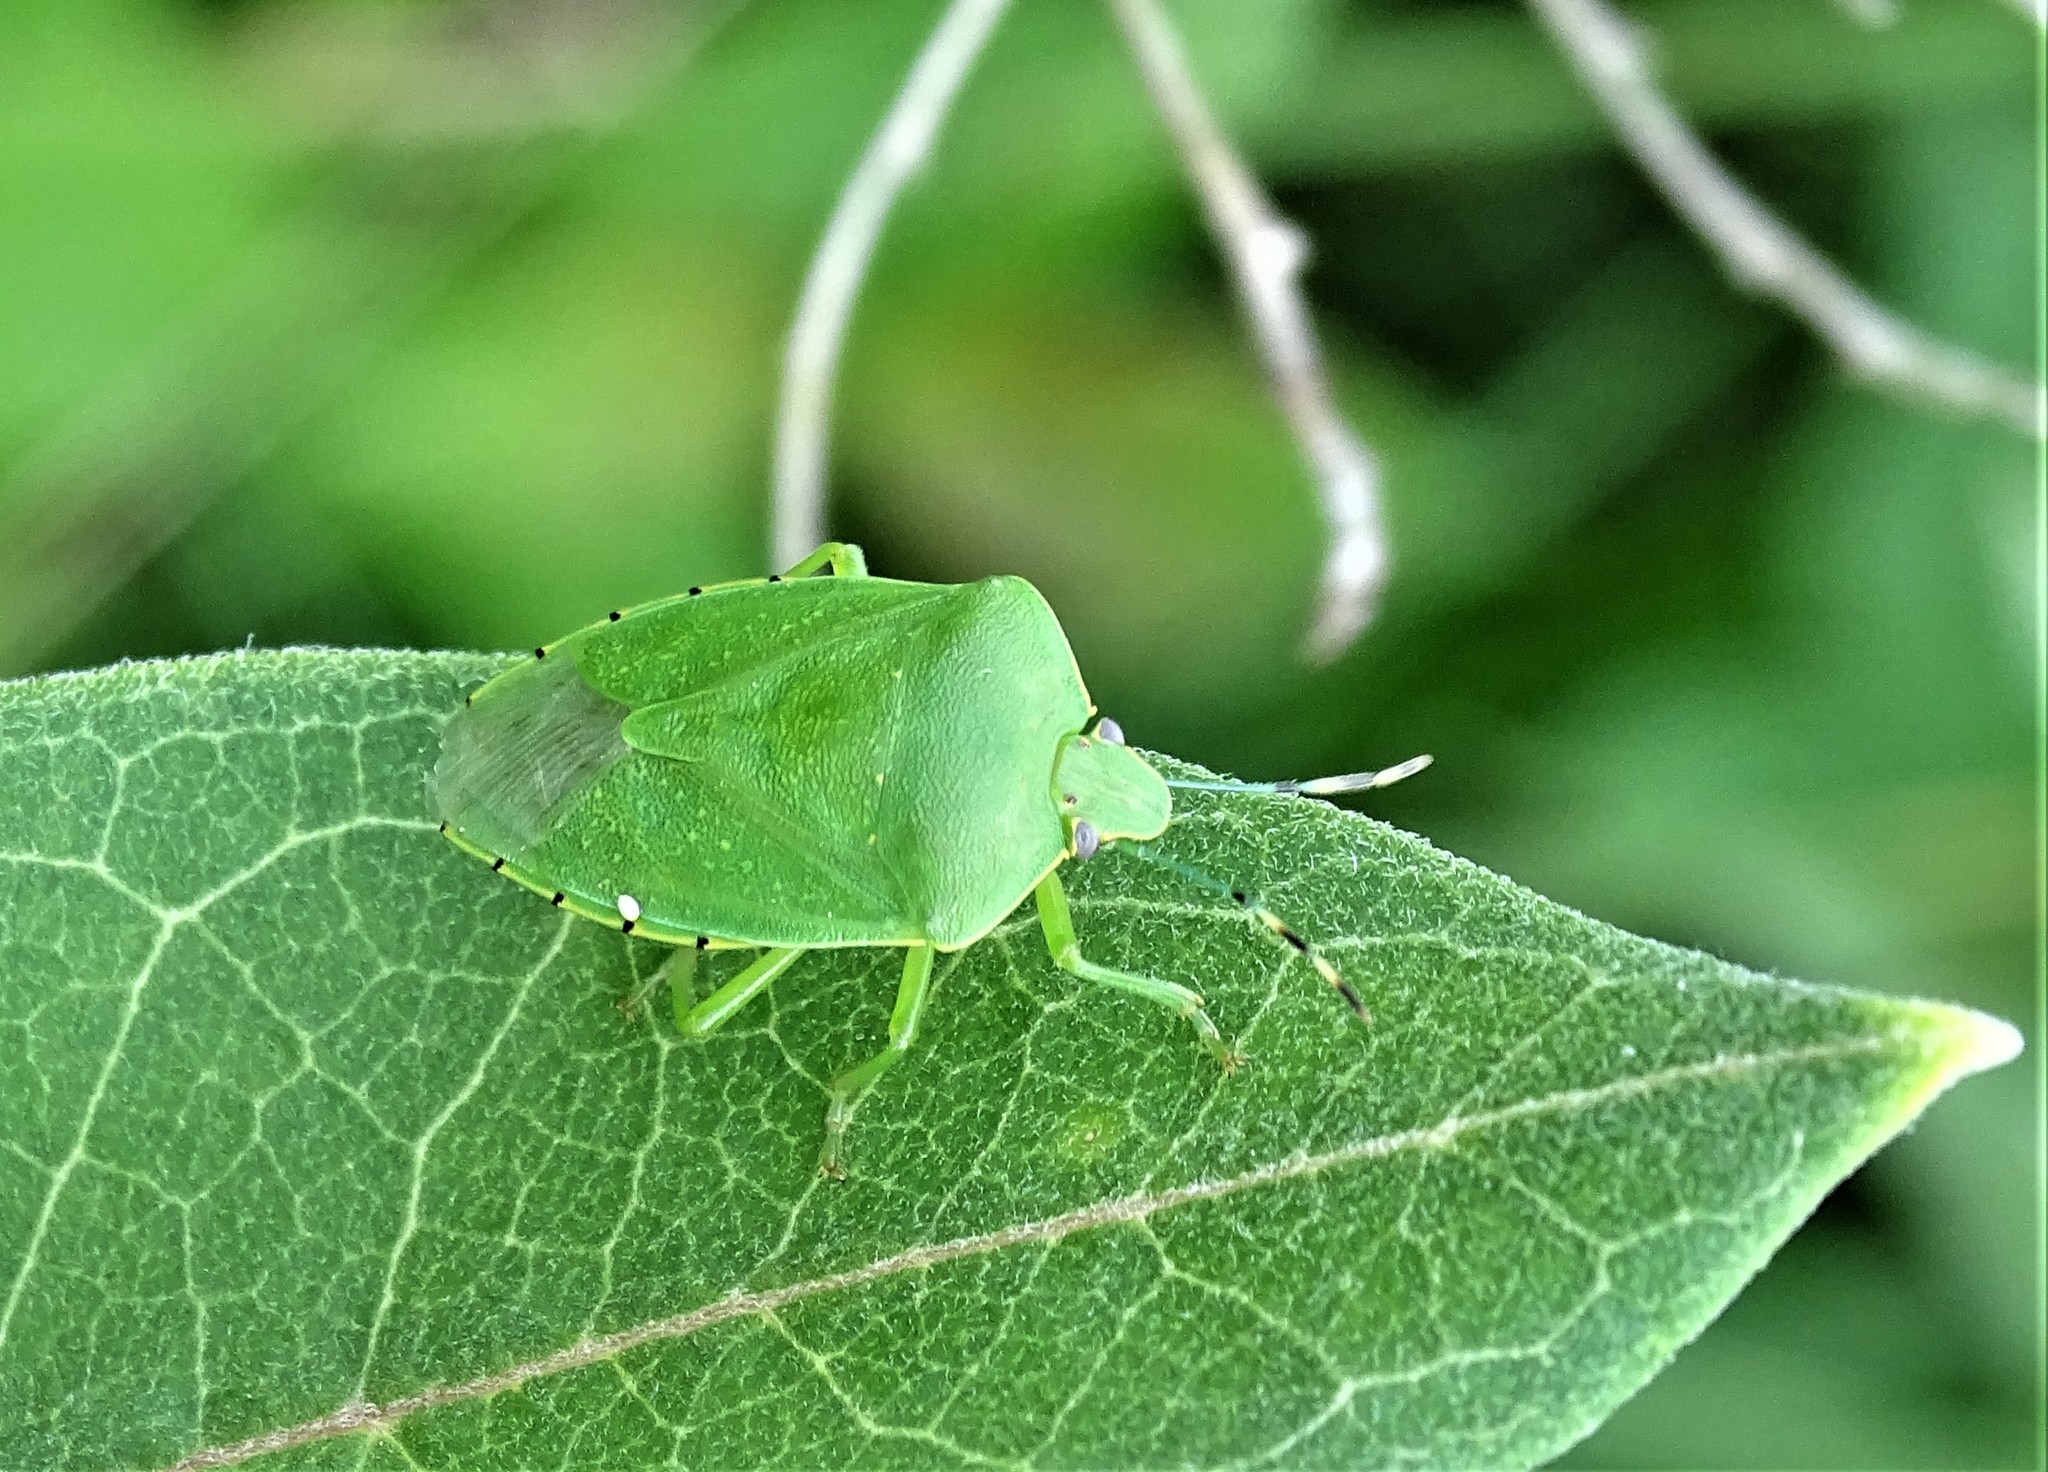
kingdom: Animalia
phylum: Arthropoda
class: Insecta
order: Hemiptera
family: Pentatomidae
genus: Chinavia
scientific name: Chinavia hilaris
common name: Green stink bug
